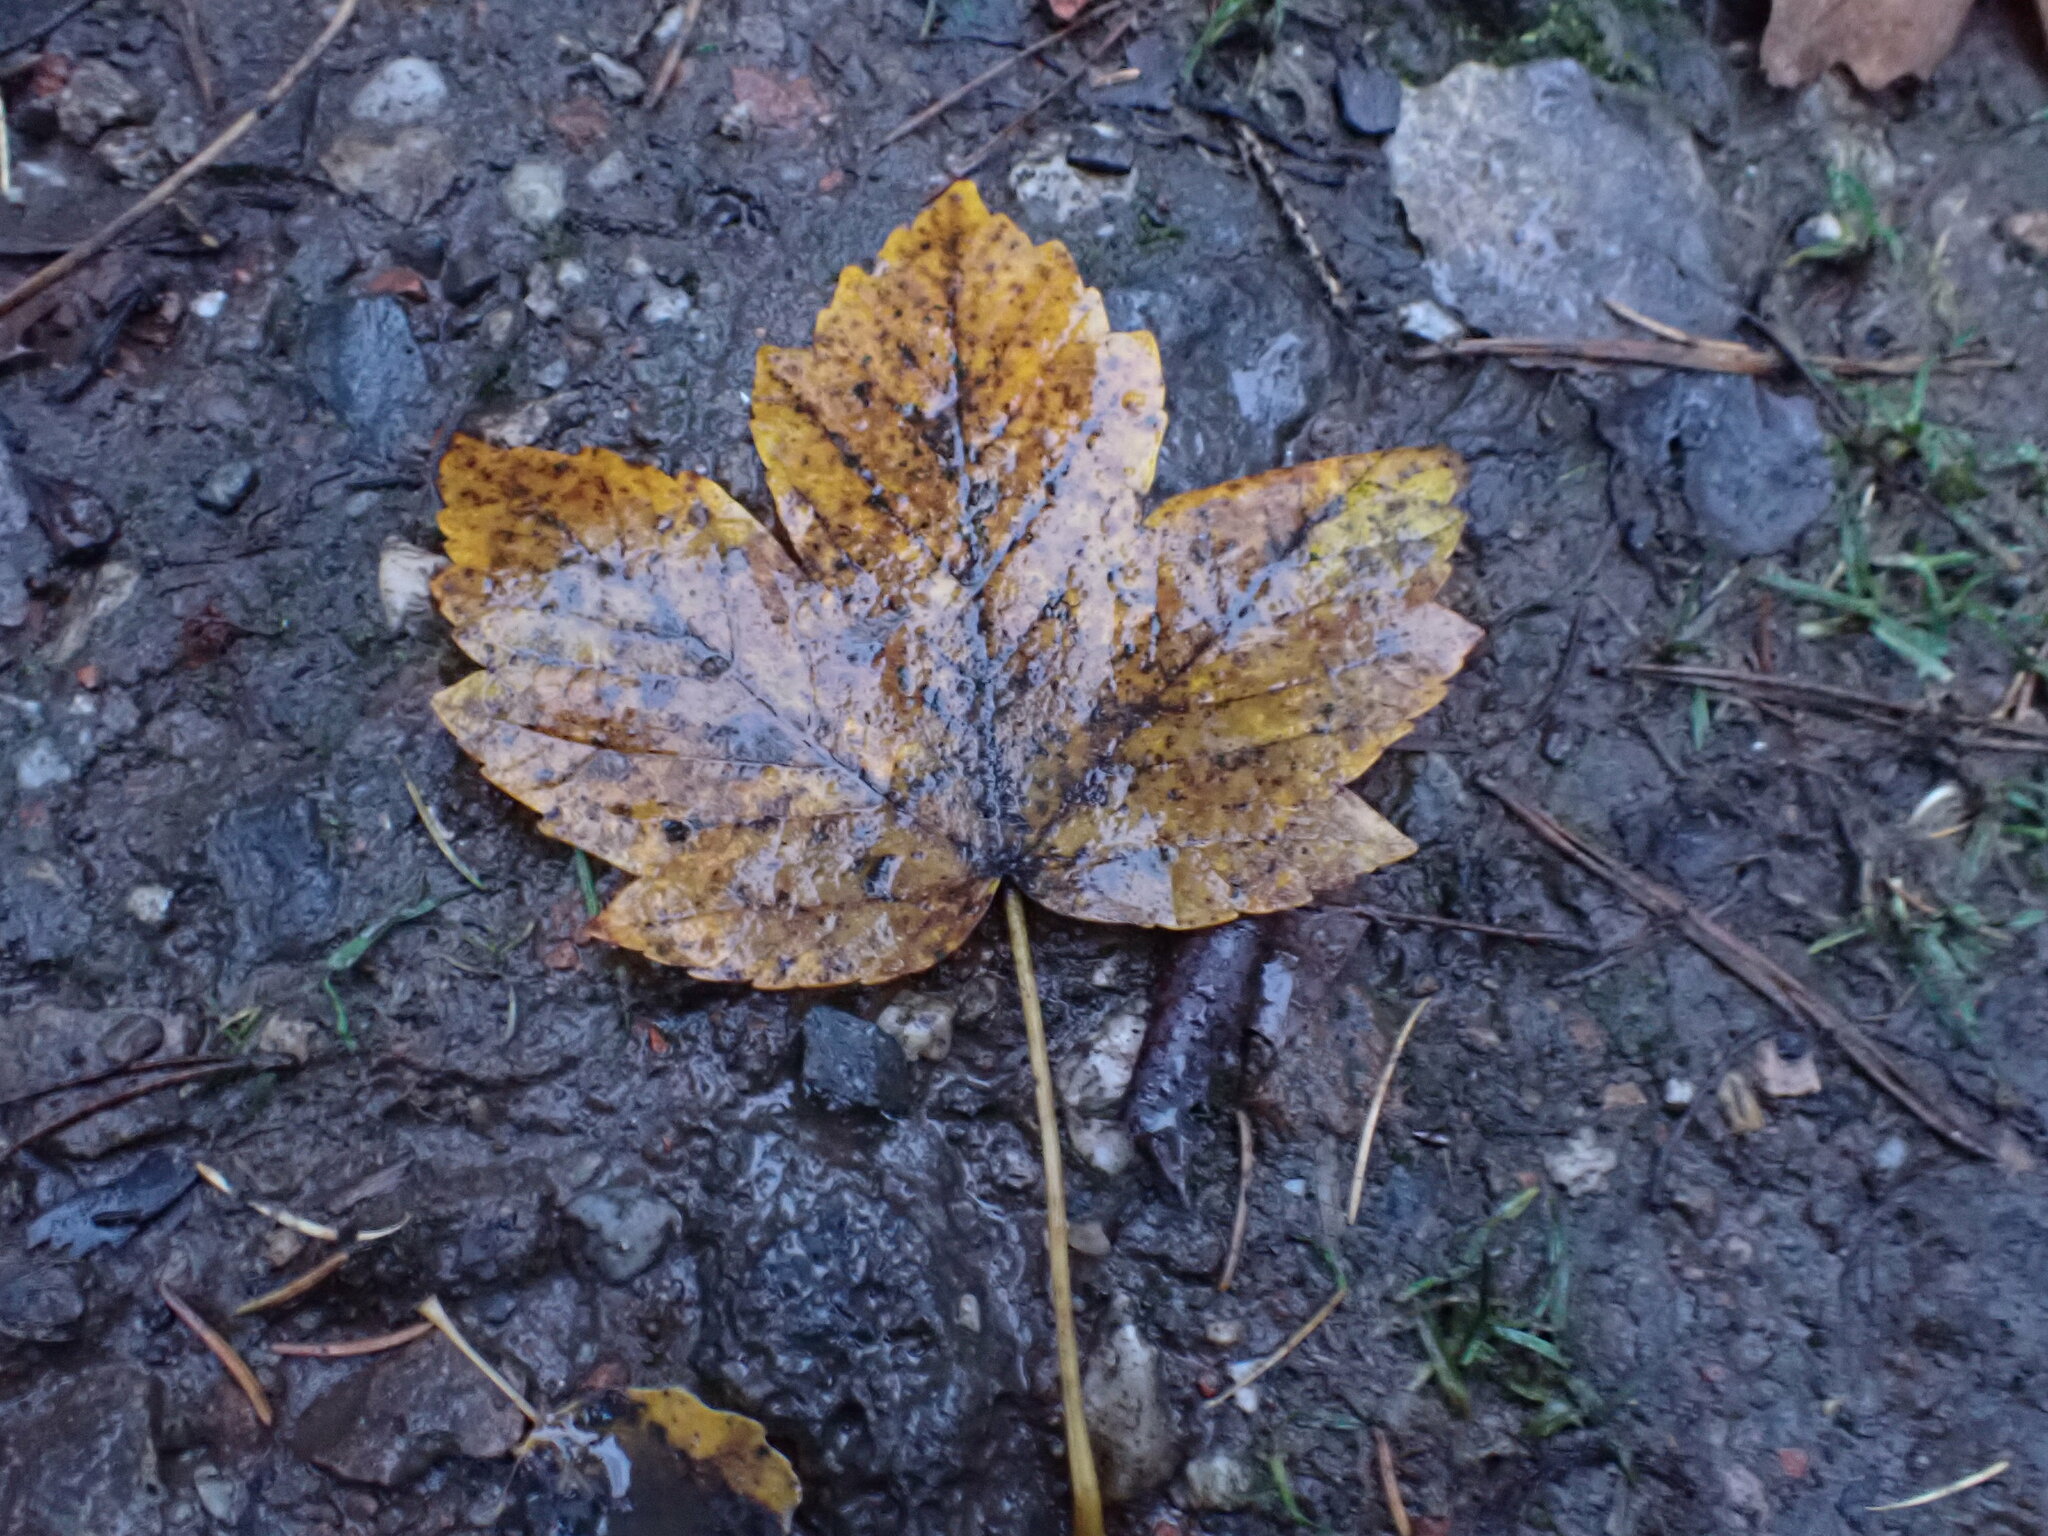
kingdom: Plantae
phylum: Tracheophyta
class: Magnoliopsida
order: Sapindales
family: Sapindaceae
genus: Acer
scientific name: Acer pseudoplatanus
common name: Sycamore
